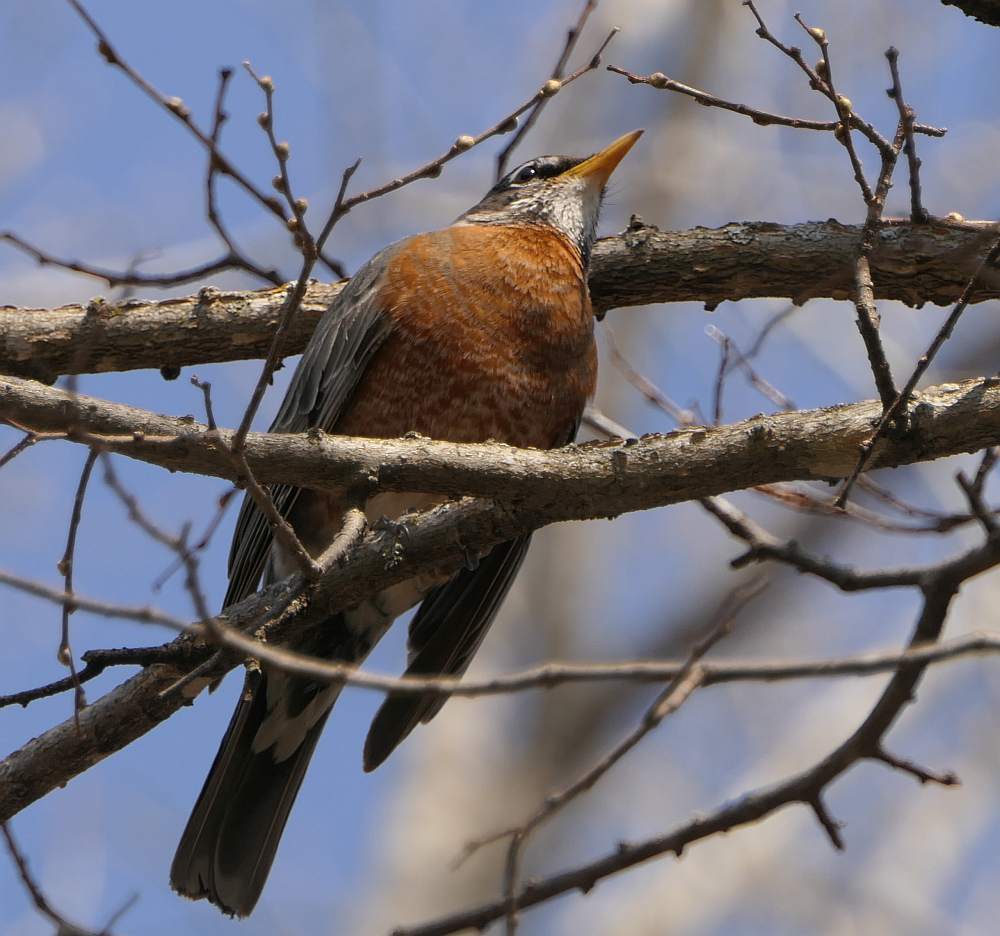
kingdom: Animalia
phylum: Chordata
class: Aves
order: Passeriformes
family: Turdidae
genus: Turdus
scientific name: Turdus migratorius
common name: American robin
